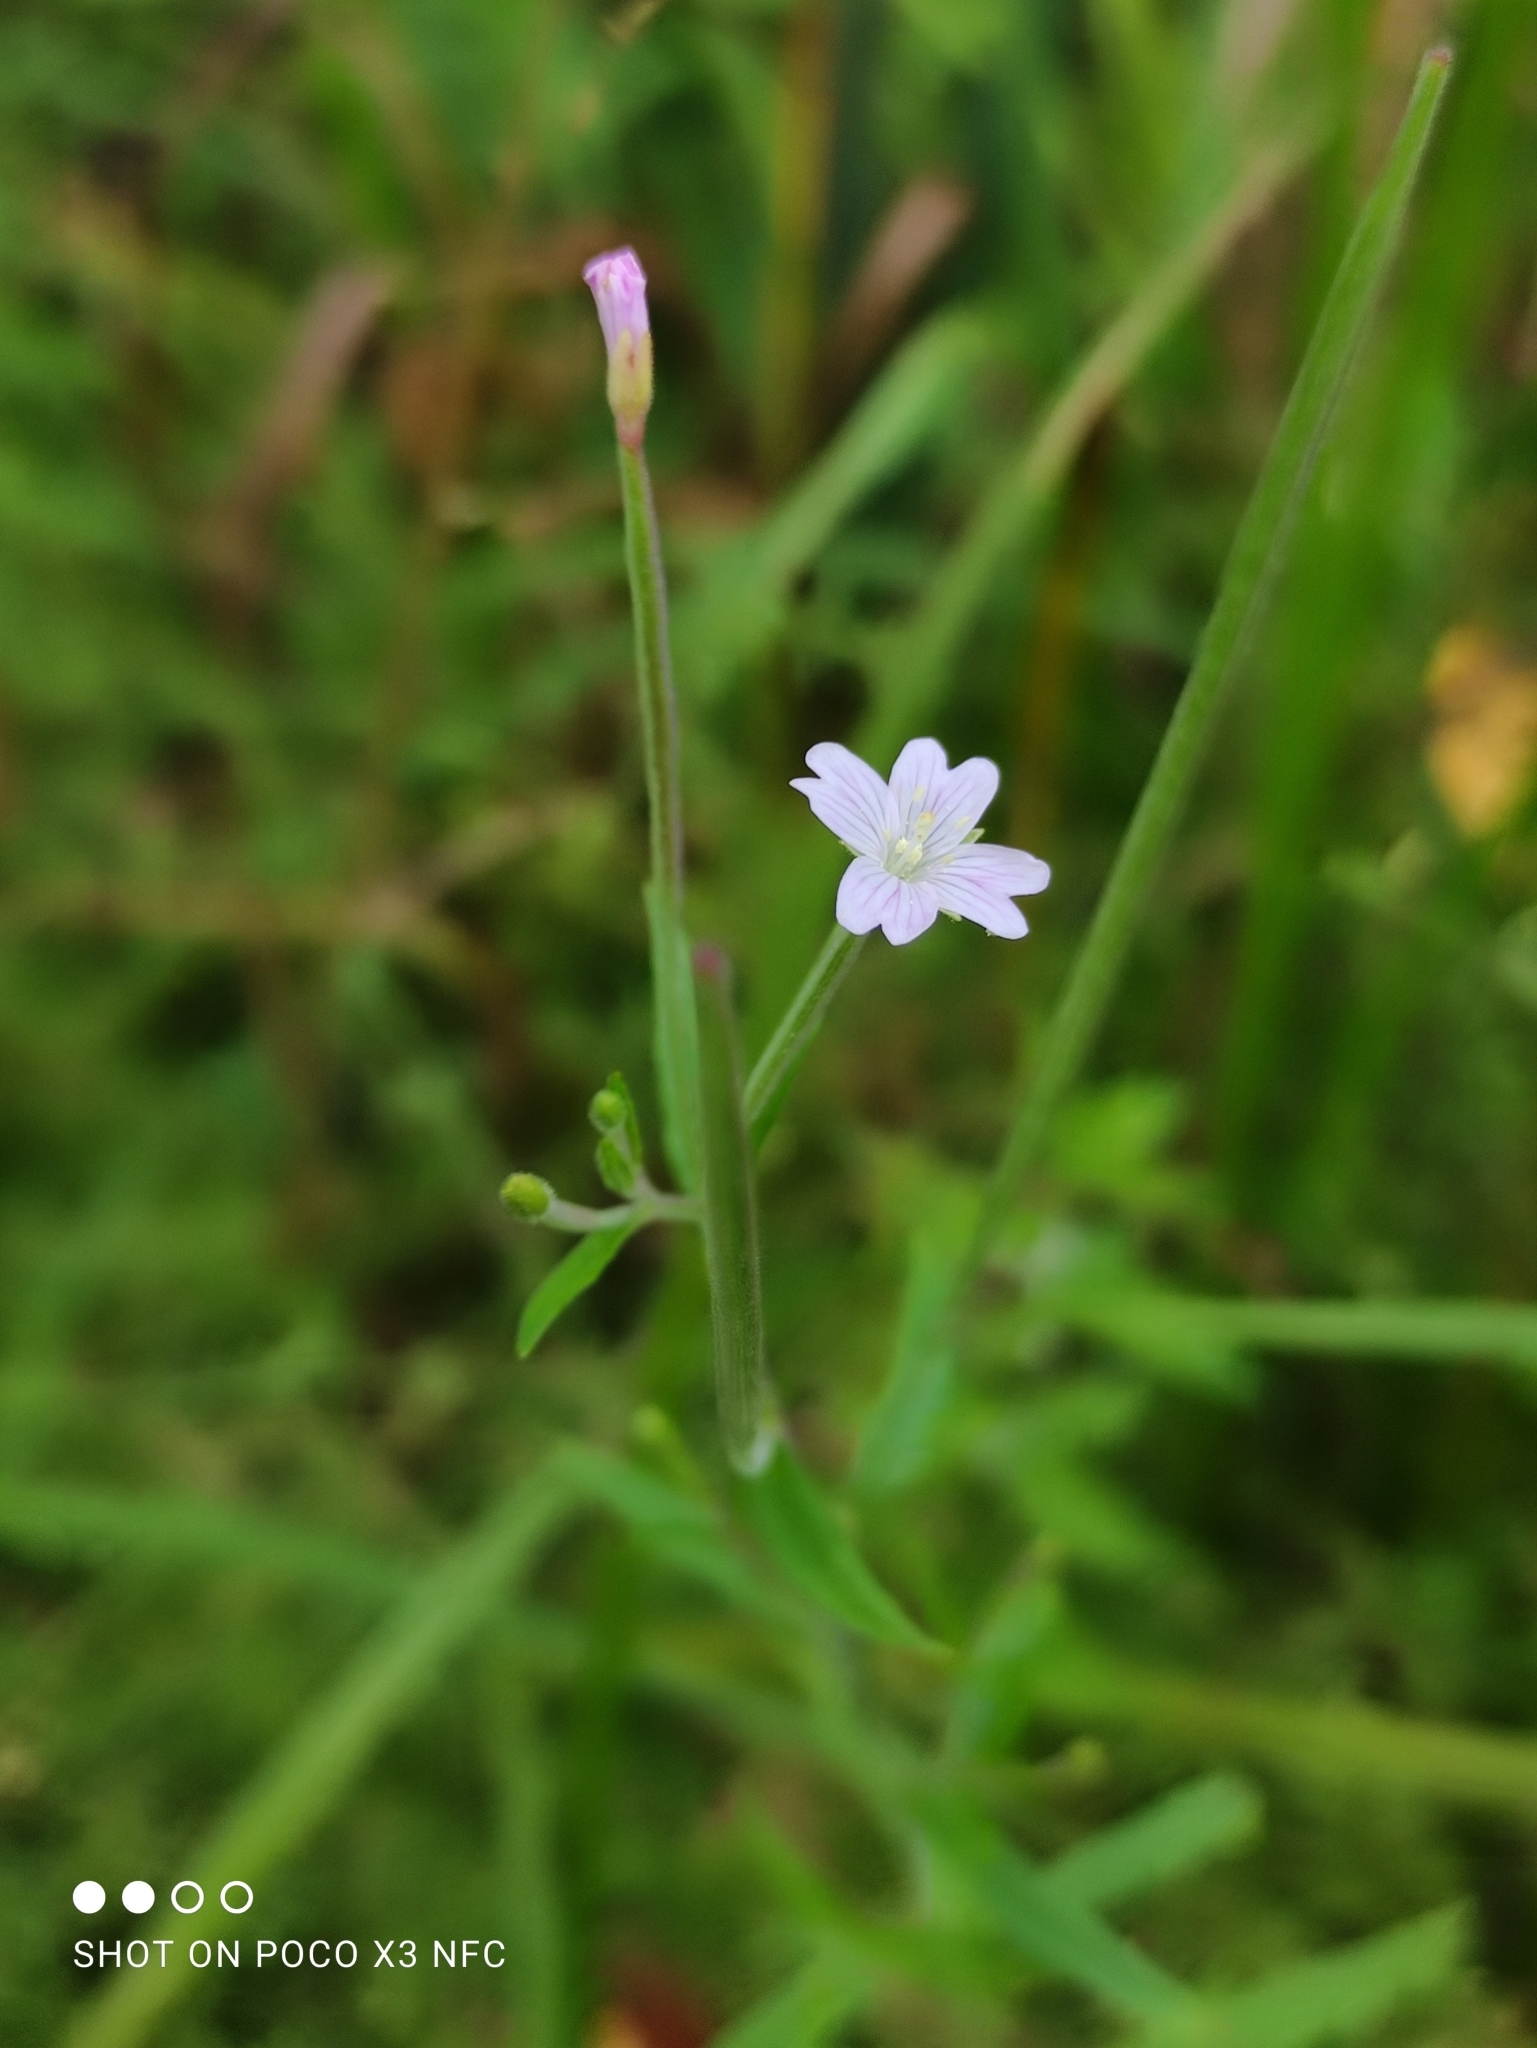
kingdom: Plantae
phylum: Tracheophyta
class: Magnoliopsida
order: Myrtales
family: Onagraceae
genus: Epilobium
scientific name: Epilobium palustre
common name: Marsh willowherb
